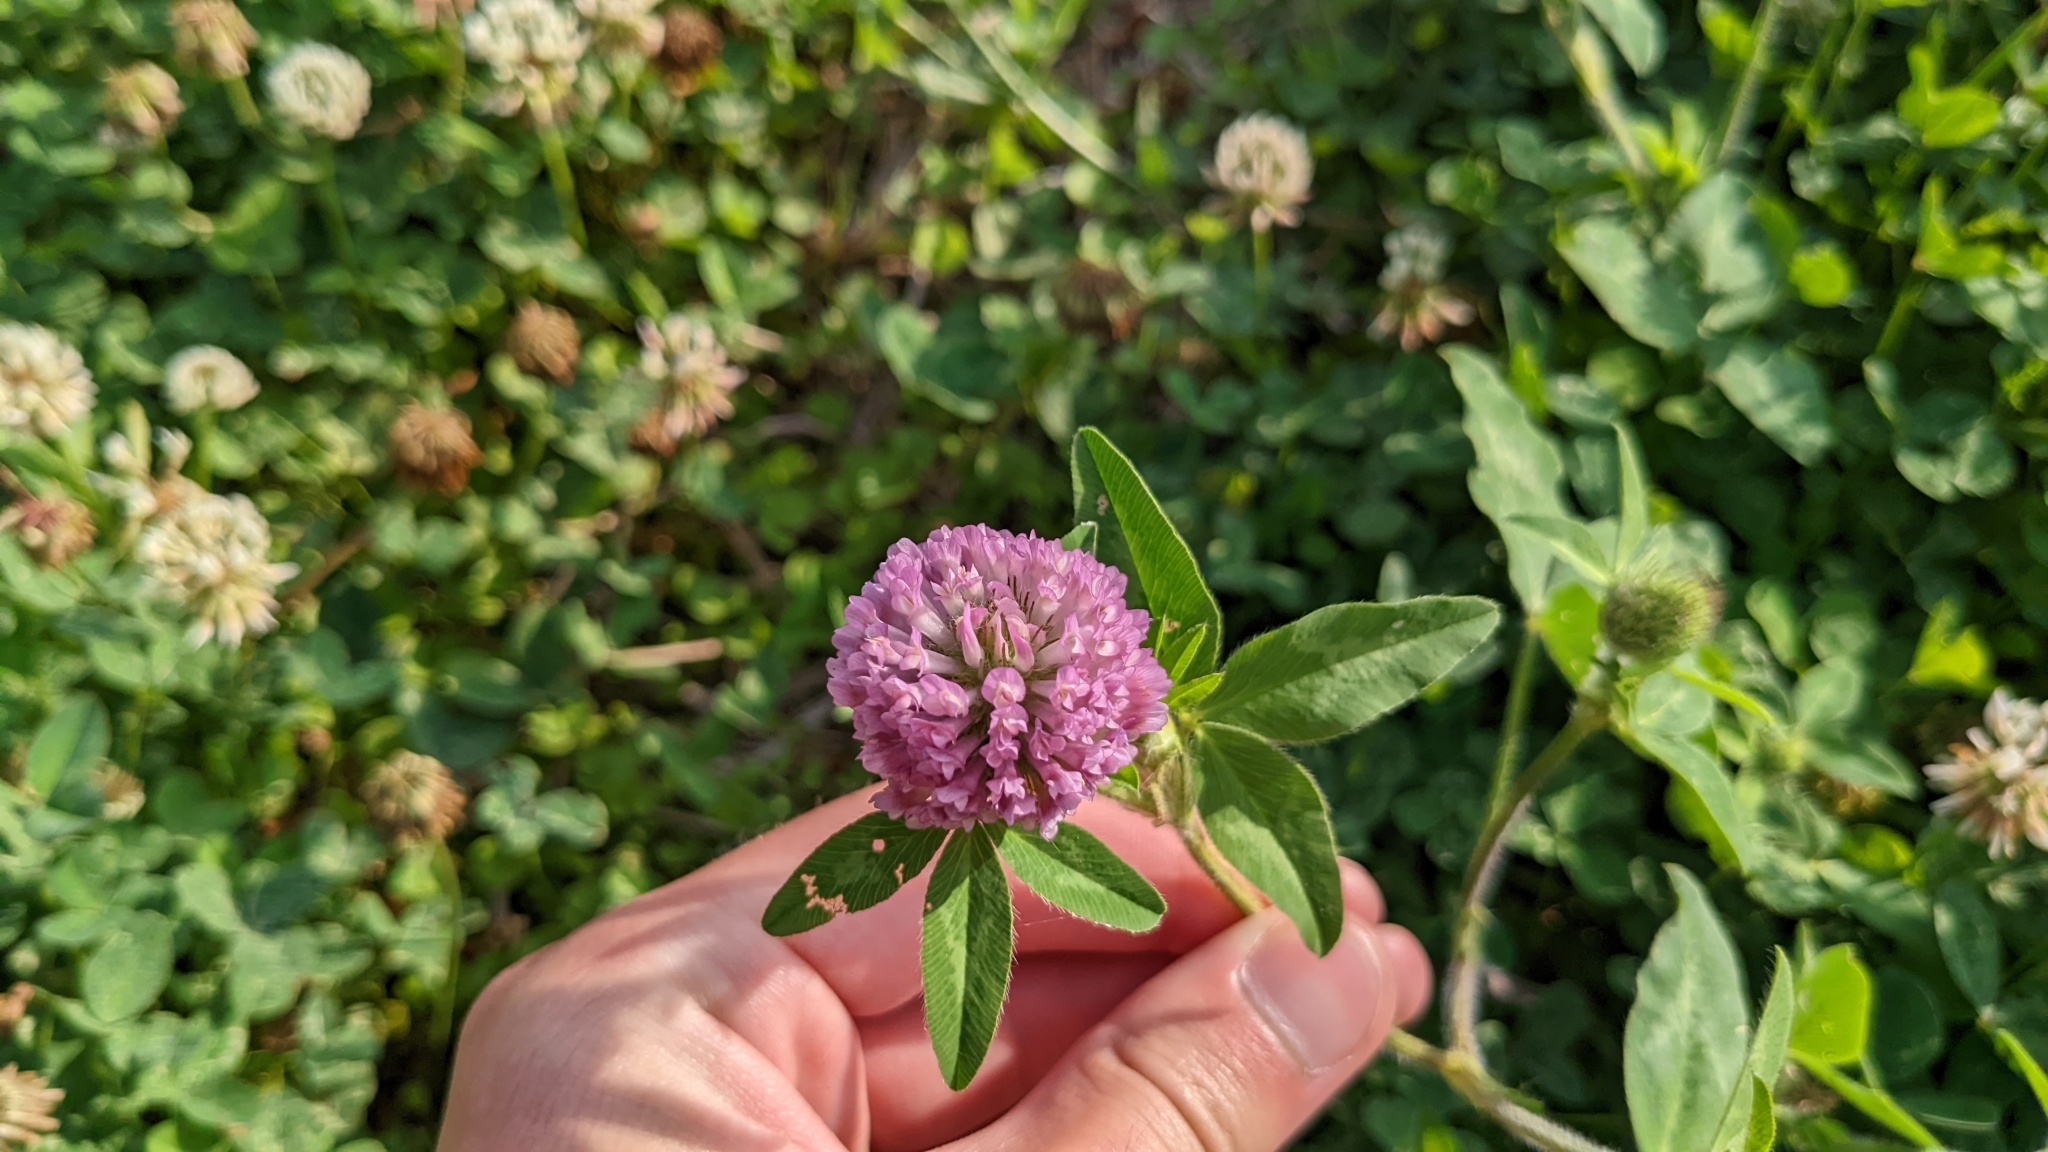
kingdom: Plantae
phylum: Tracheophyta
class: Magnoliopsida
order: Fabales
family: Fabaceae
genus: Trifolium
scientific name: Trifolium pratense
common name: Red clover
